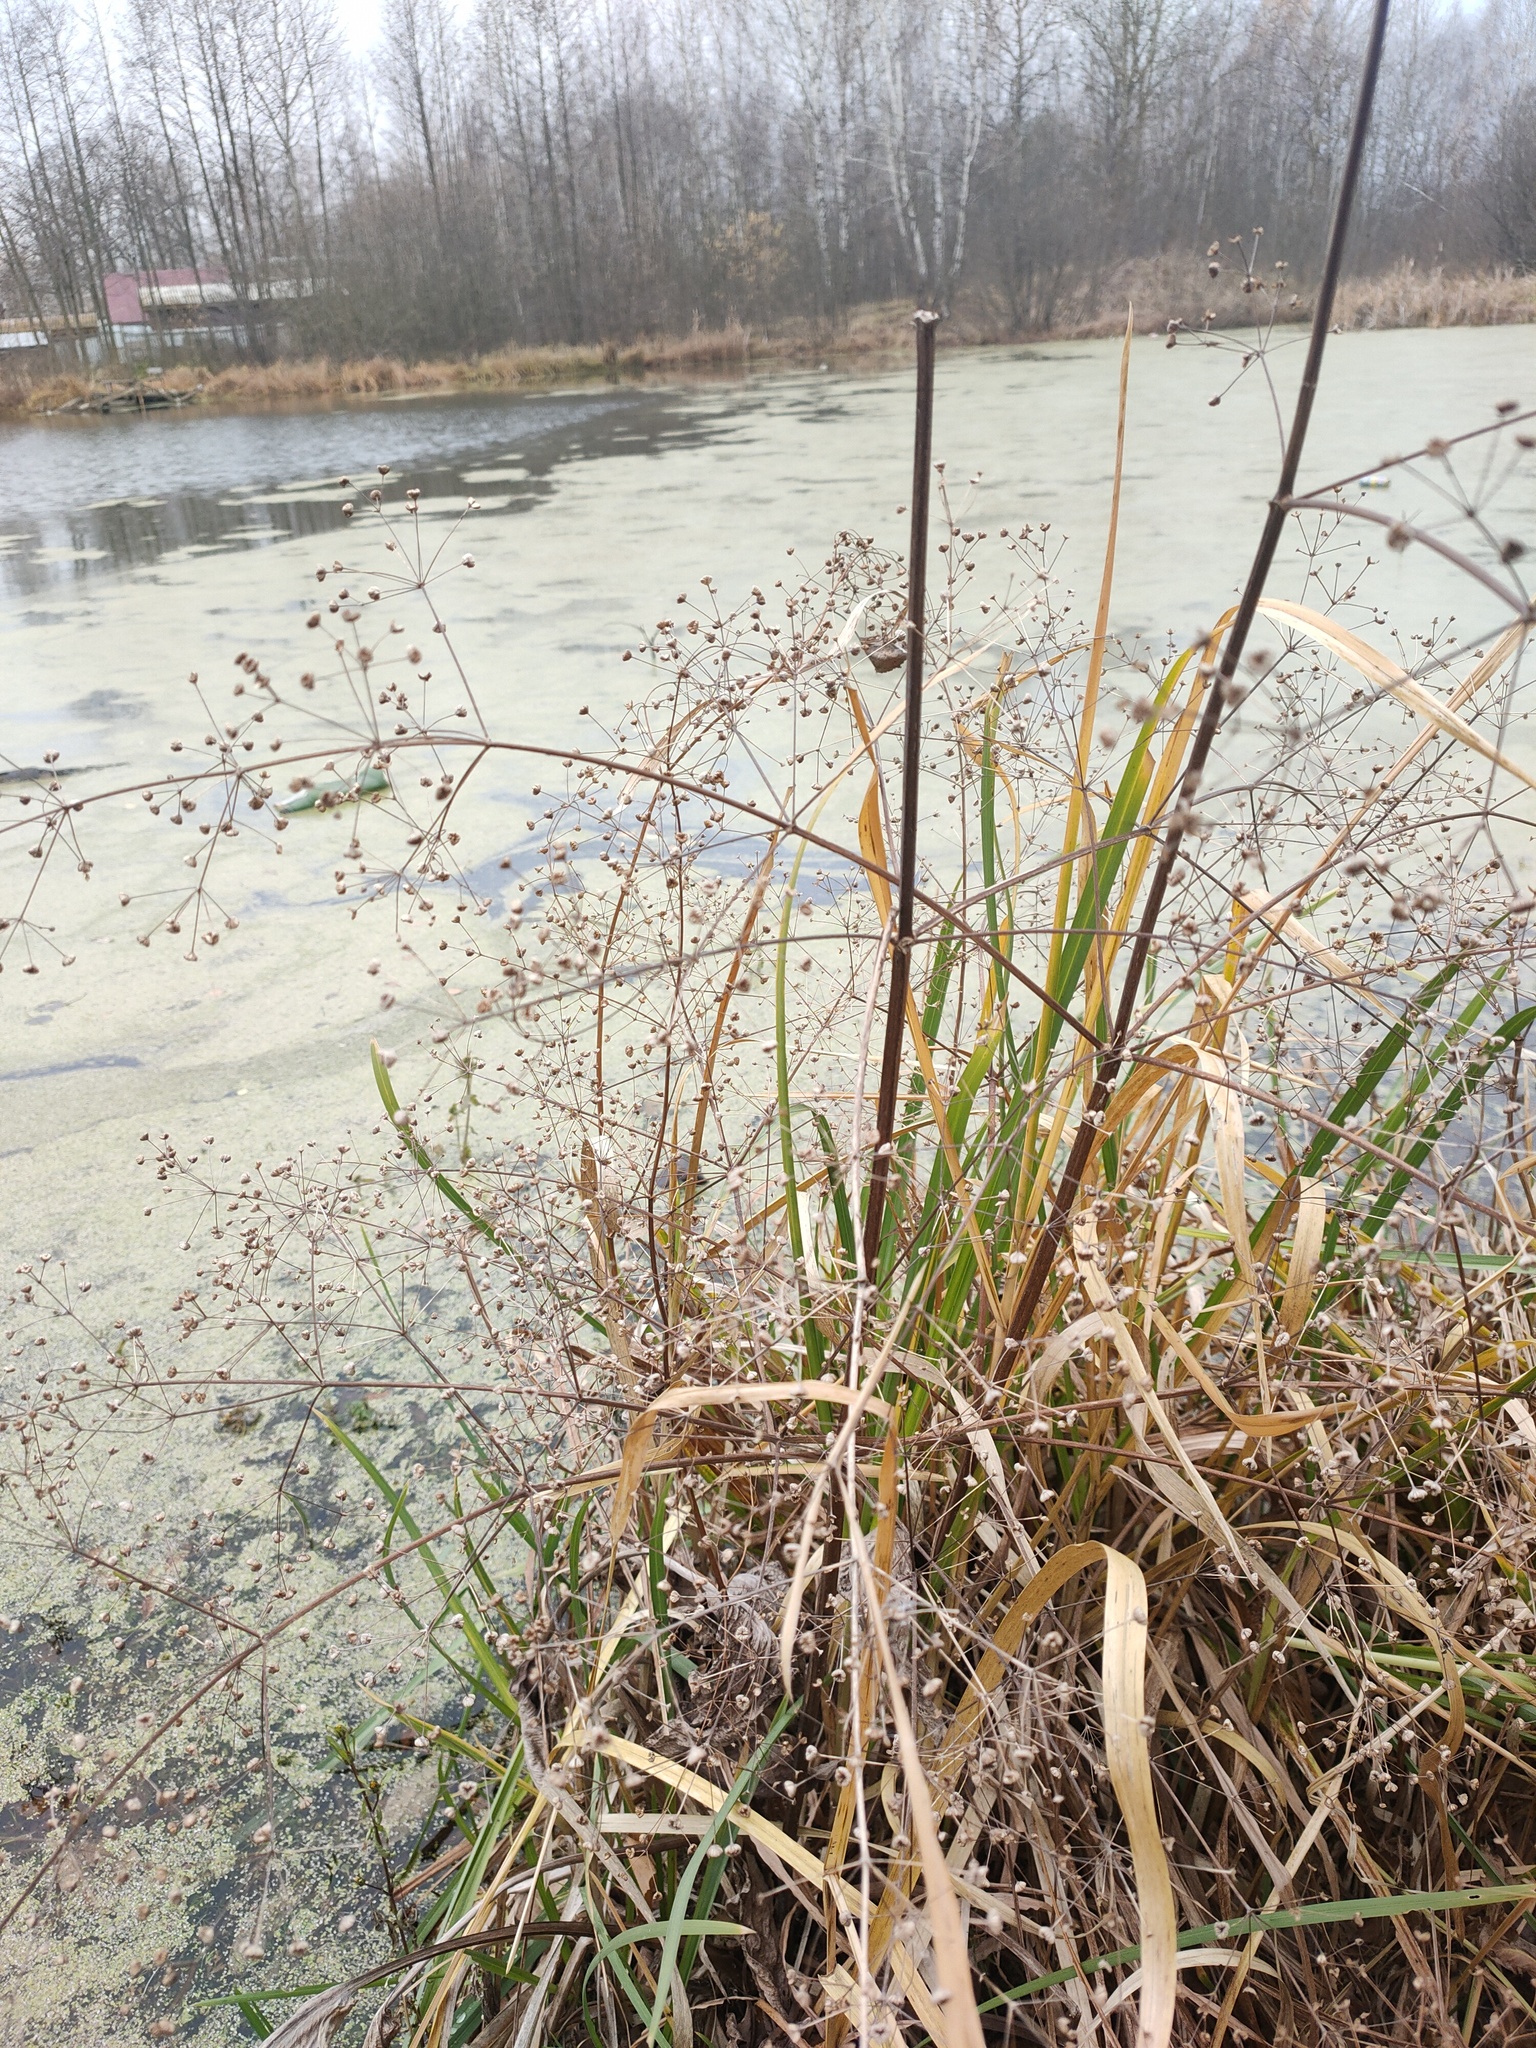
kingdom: Plantae
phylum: Tracheophyta
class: Liliopsida
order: Alismatales
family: Alismataceae
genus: Alisma
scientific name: Alisma plantago-aquatica
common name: Water-plantain
